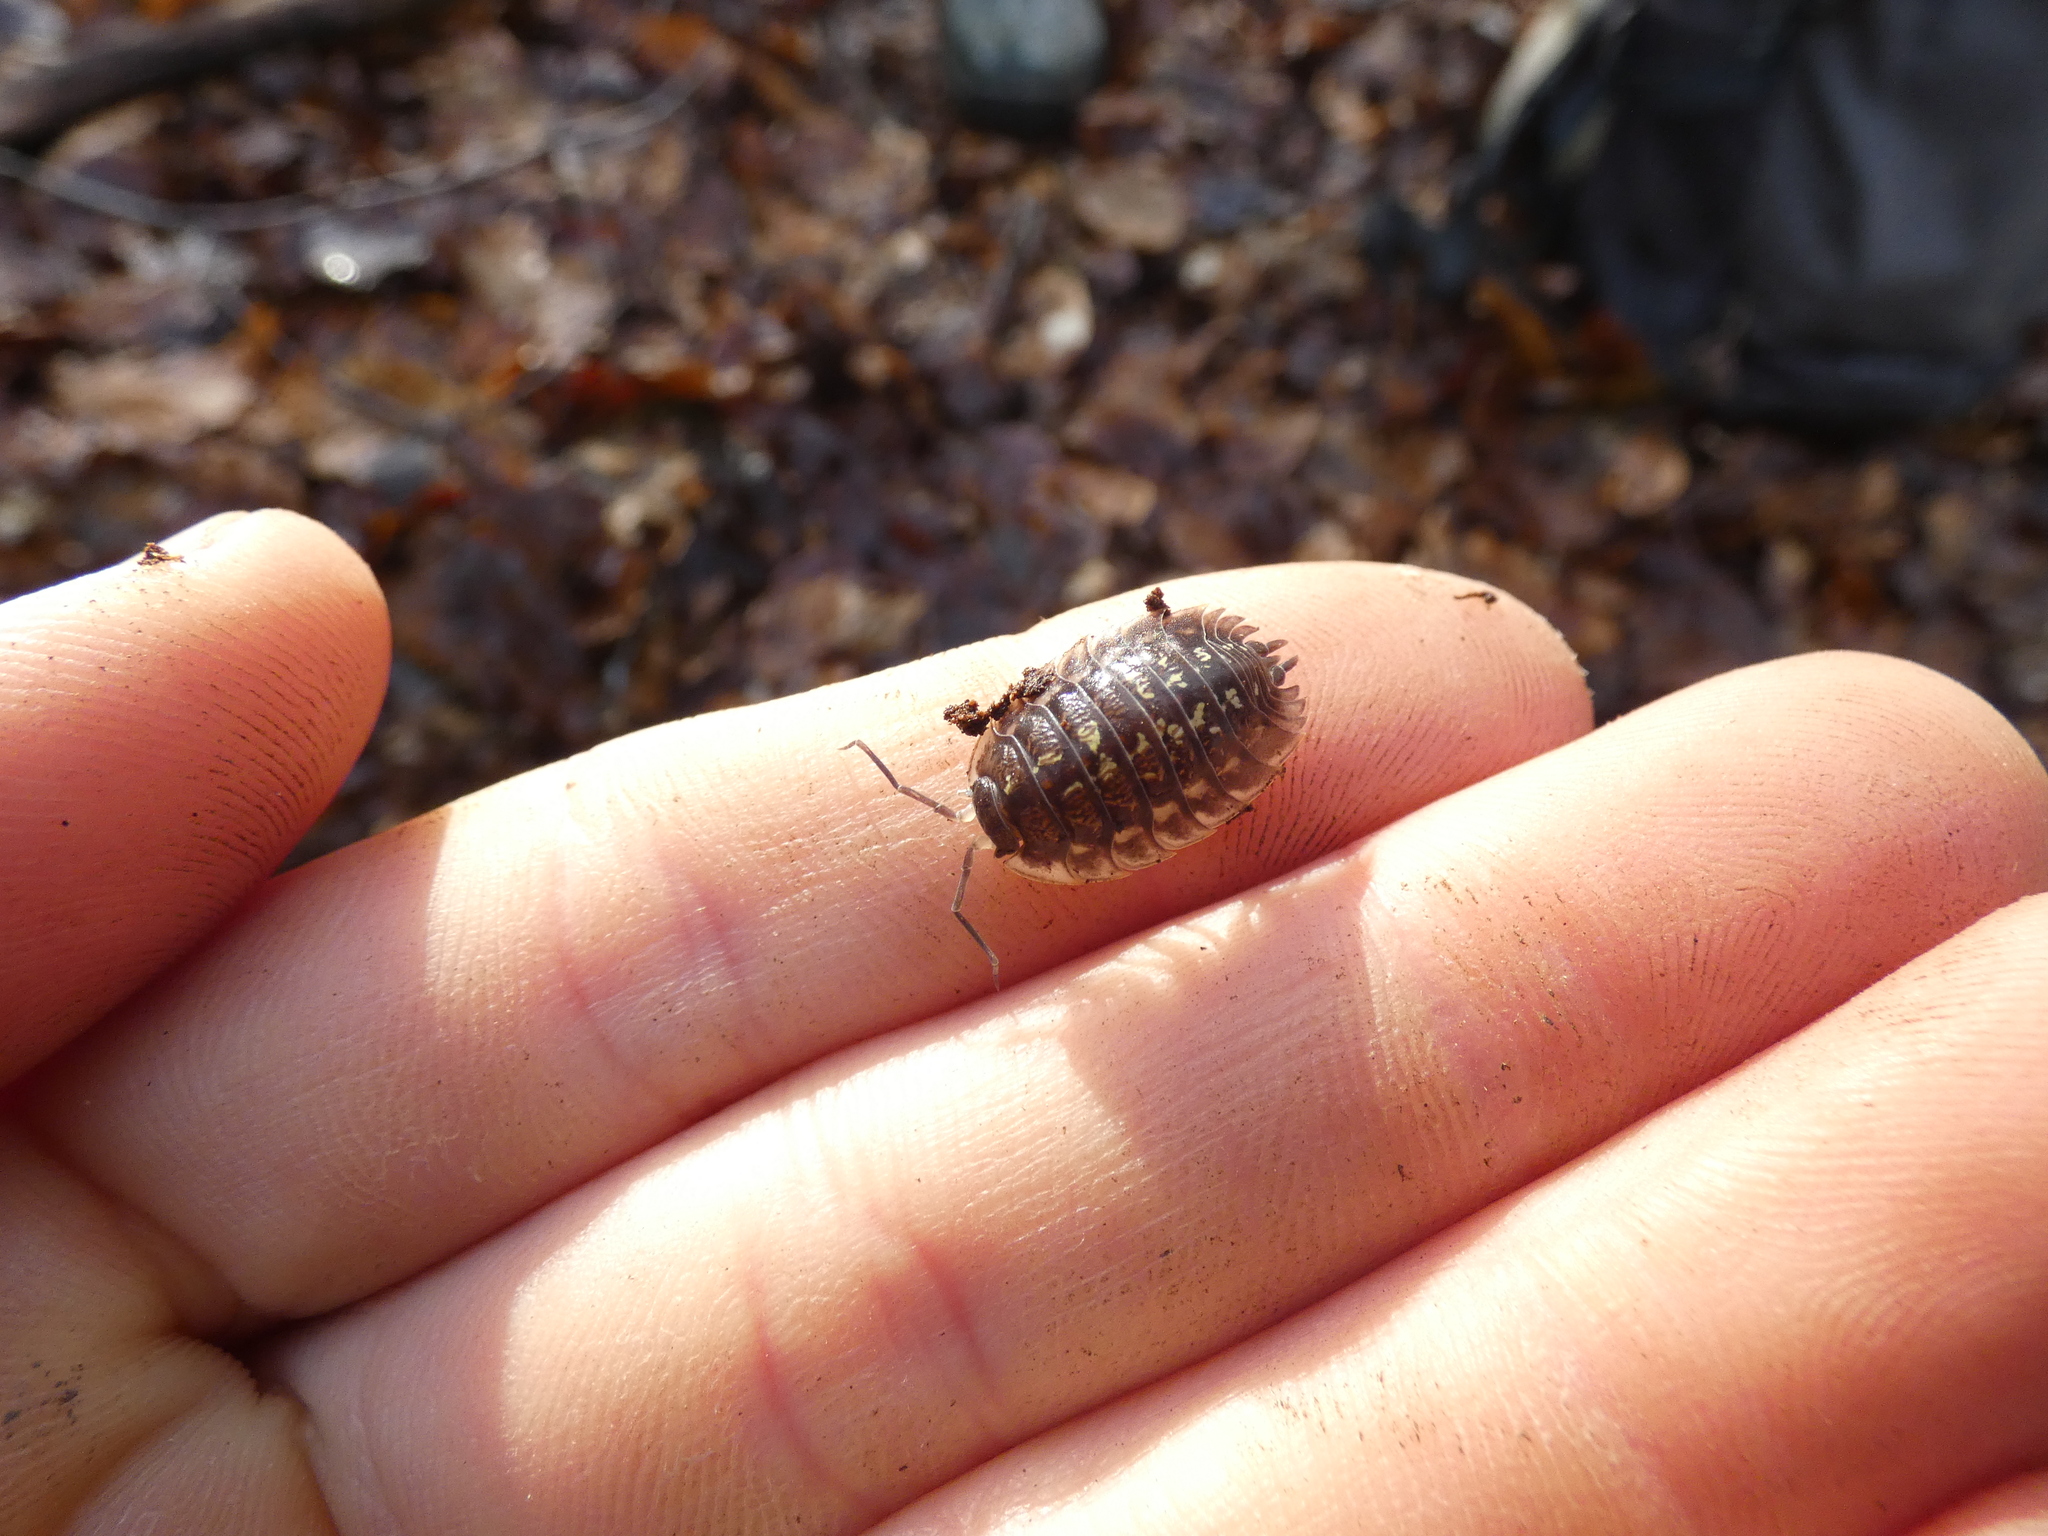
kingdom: Animalia
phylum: Arthropoda
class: Malacostraca
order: Isopoda
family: Oniscidae
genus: Oniscus
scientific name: Oniscus asellus
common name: Common shiny woodlouse
